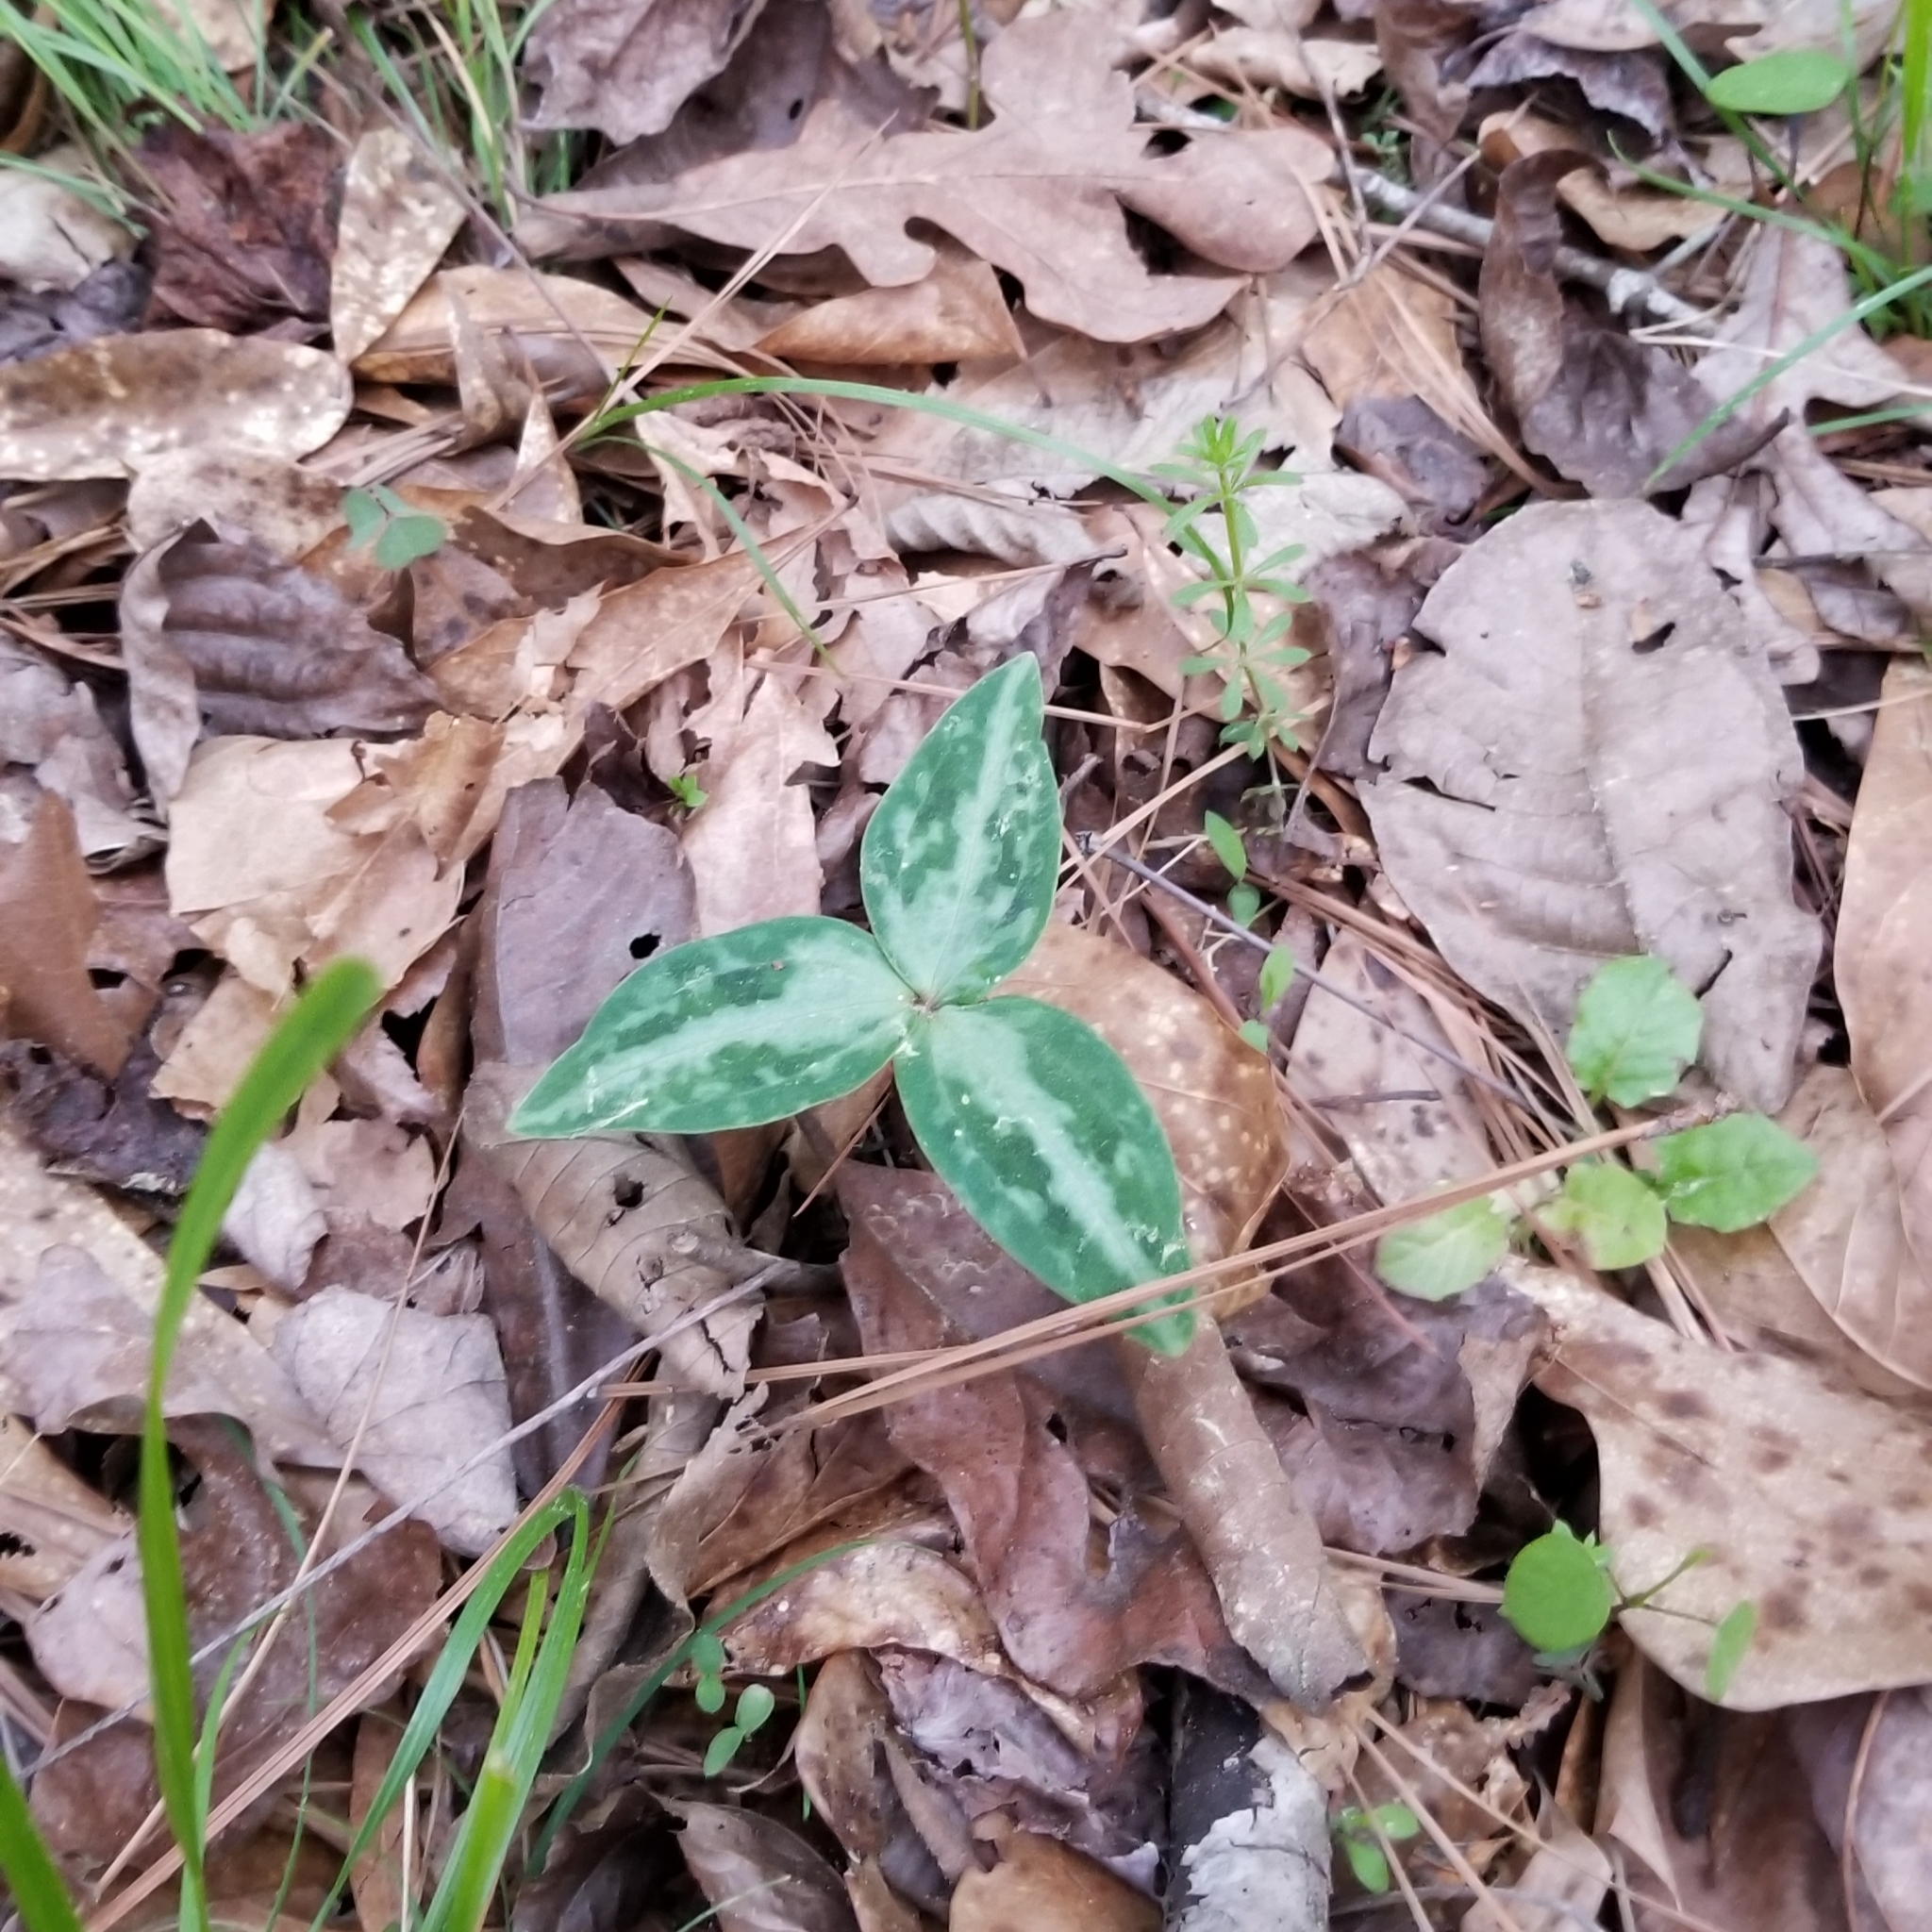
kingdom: Plantae
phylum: Tracheophyta
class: Liliopsida
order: Liliales
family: Melanthiaceae
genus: Trillium
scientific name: Trillium reliquum
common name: Relict trillium
